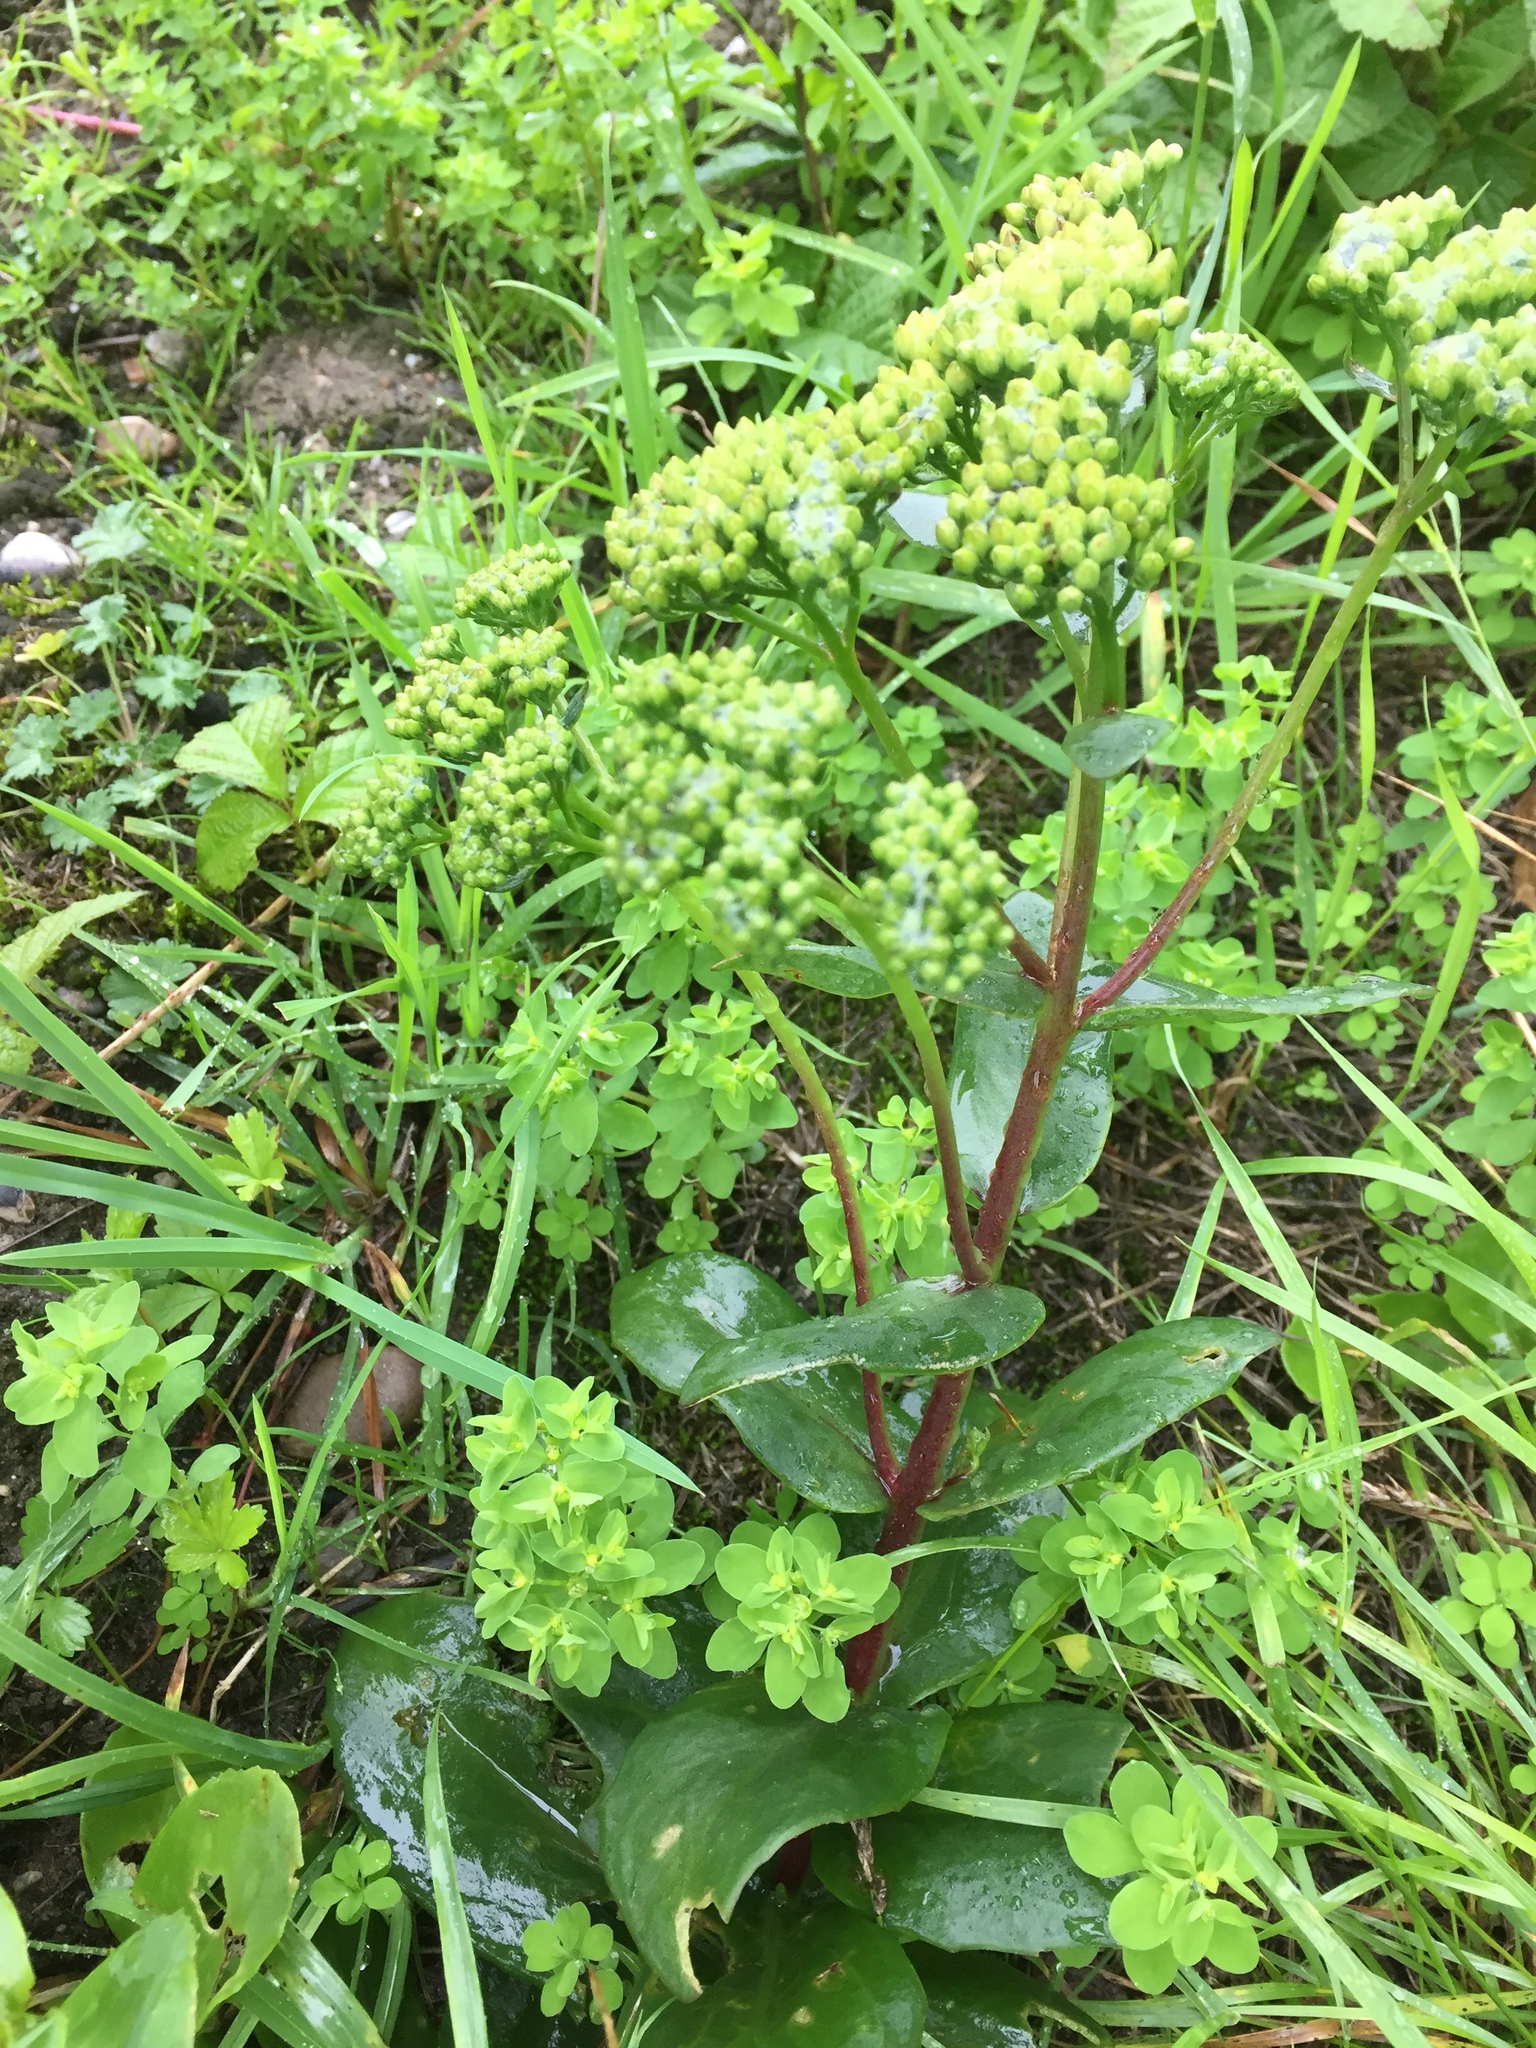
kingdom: Plantae
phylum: Tracheophyta
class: Magnoliopsida
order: Saxifragales
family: Crassulaceae
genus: Hylotelephium
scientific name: Hylotelephium maximum
